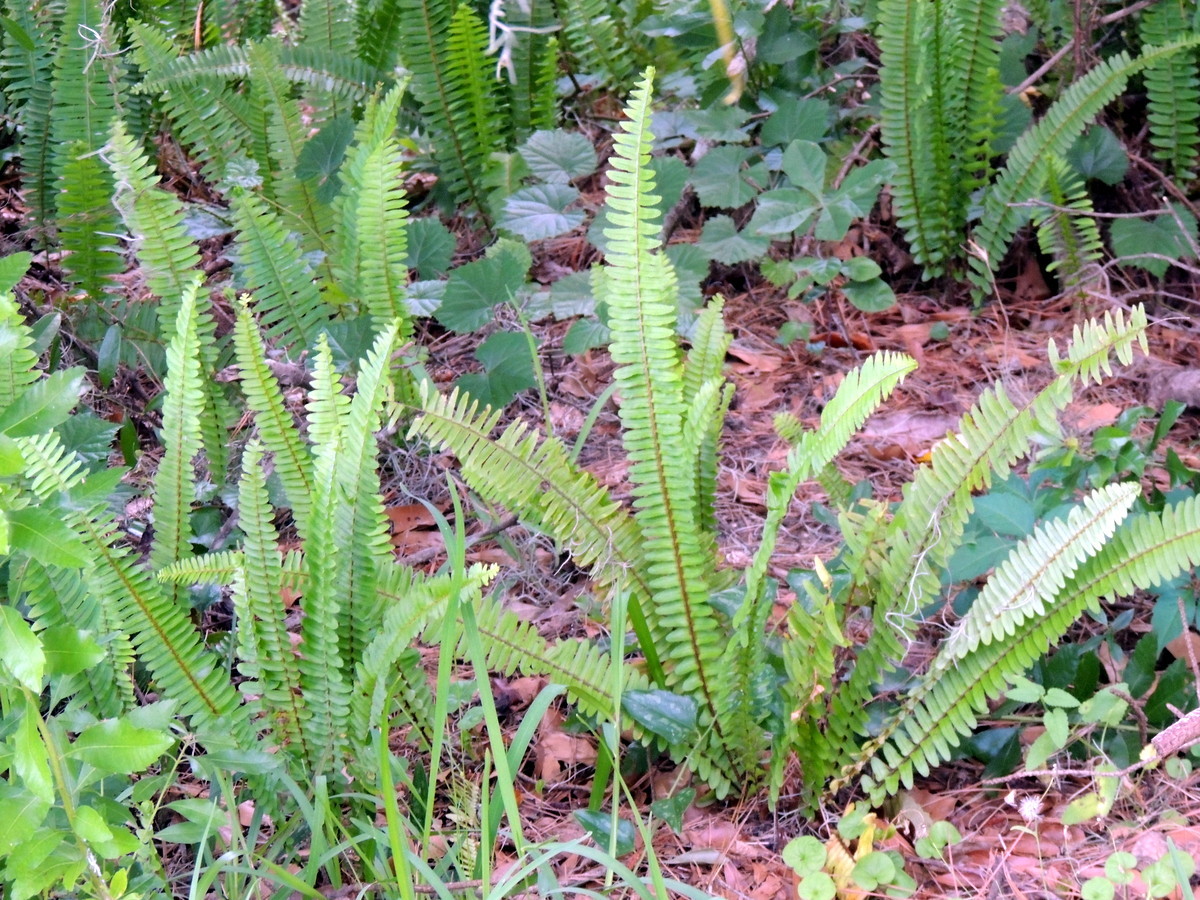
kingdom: Plantae
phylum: Tracheophyta
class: Polypodiopsida
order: Polypodiales
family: Nephrolepidaceae
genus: Nephrolepis
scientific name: Nephrolepis cordifolia
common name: Narrow swordfern
